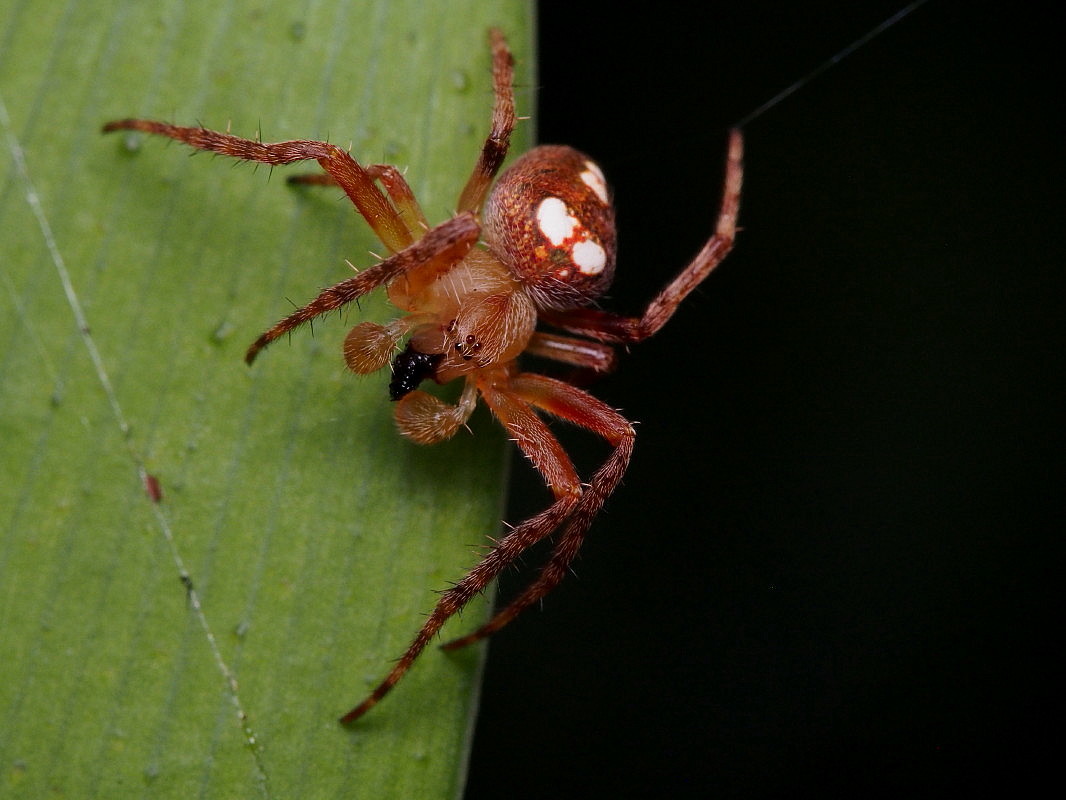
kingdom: Animalia
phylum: Arthropoda
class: Arachnida
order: Araneae
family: Araneidae
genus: Zealaranea
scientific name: Zealaranea trinotata
